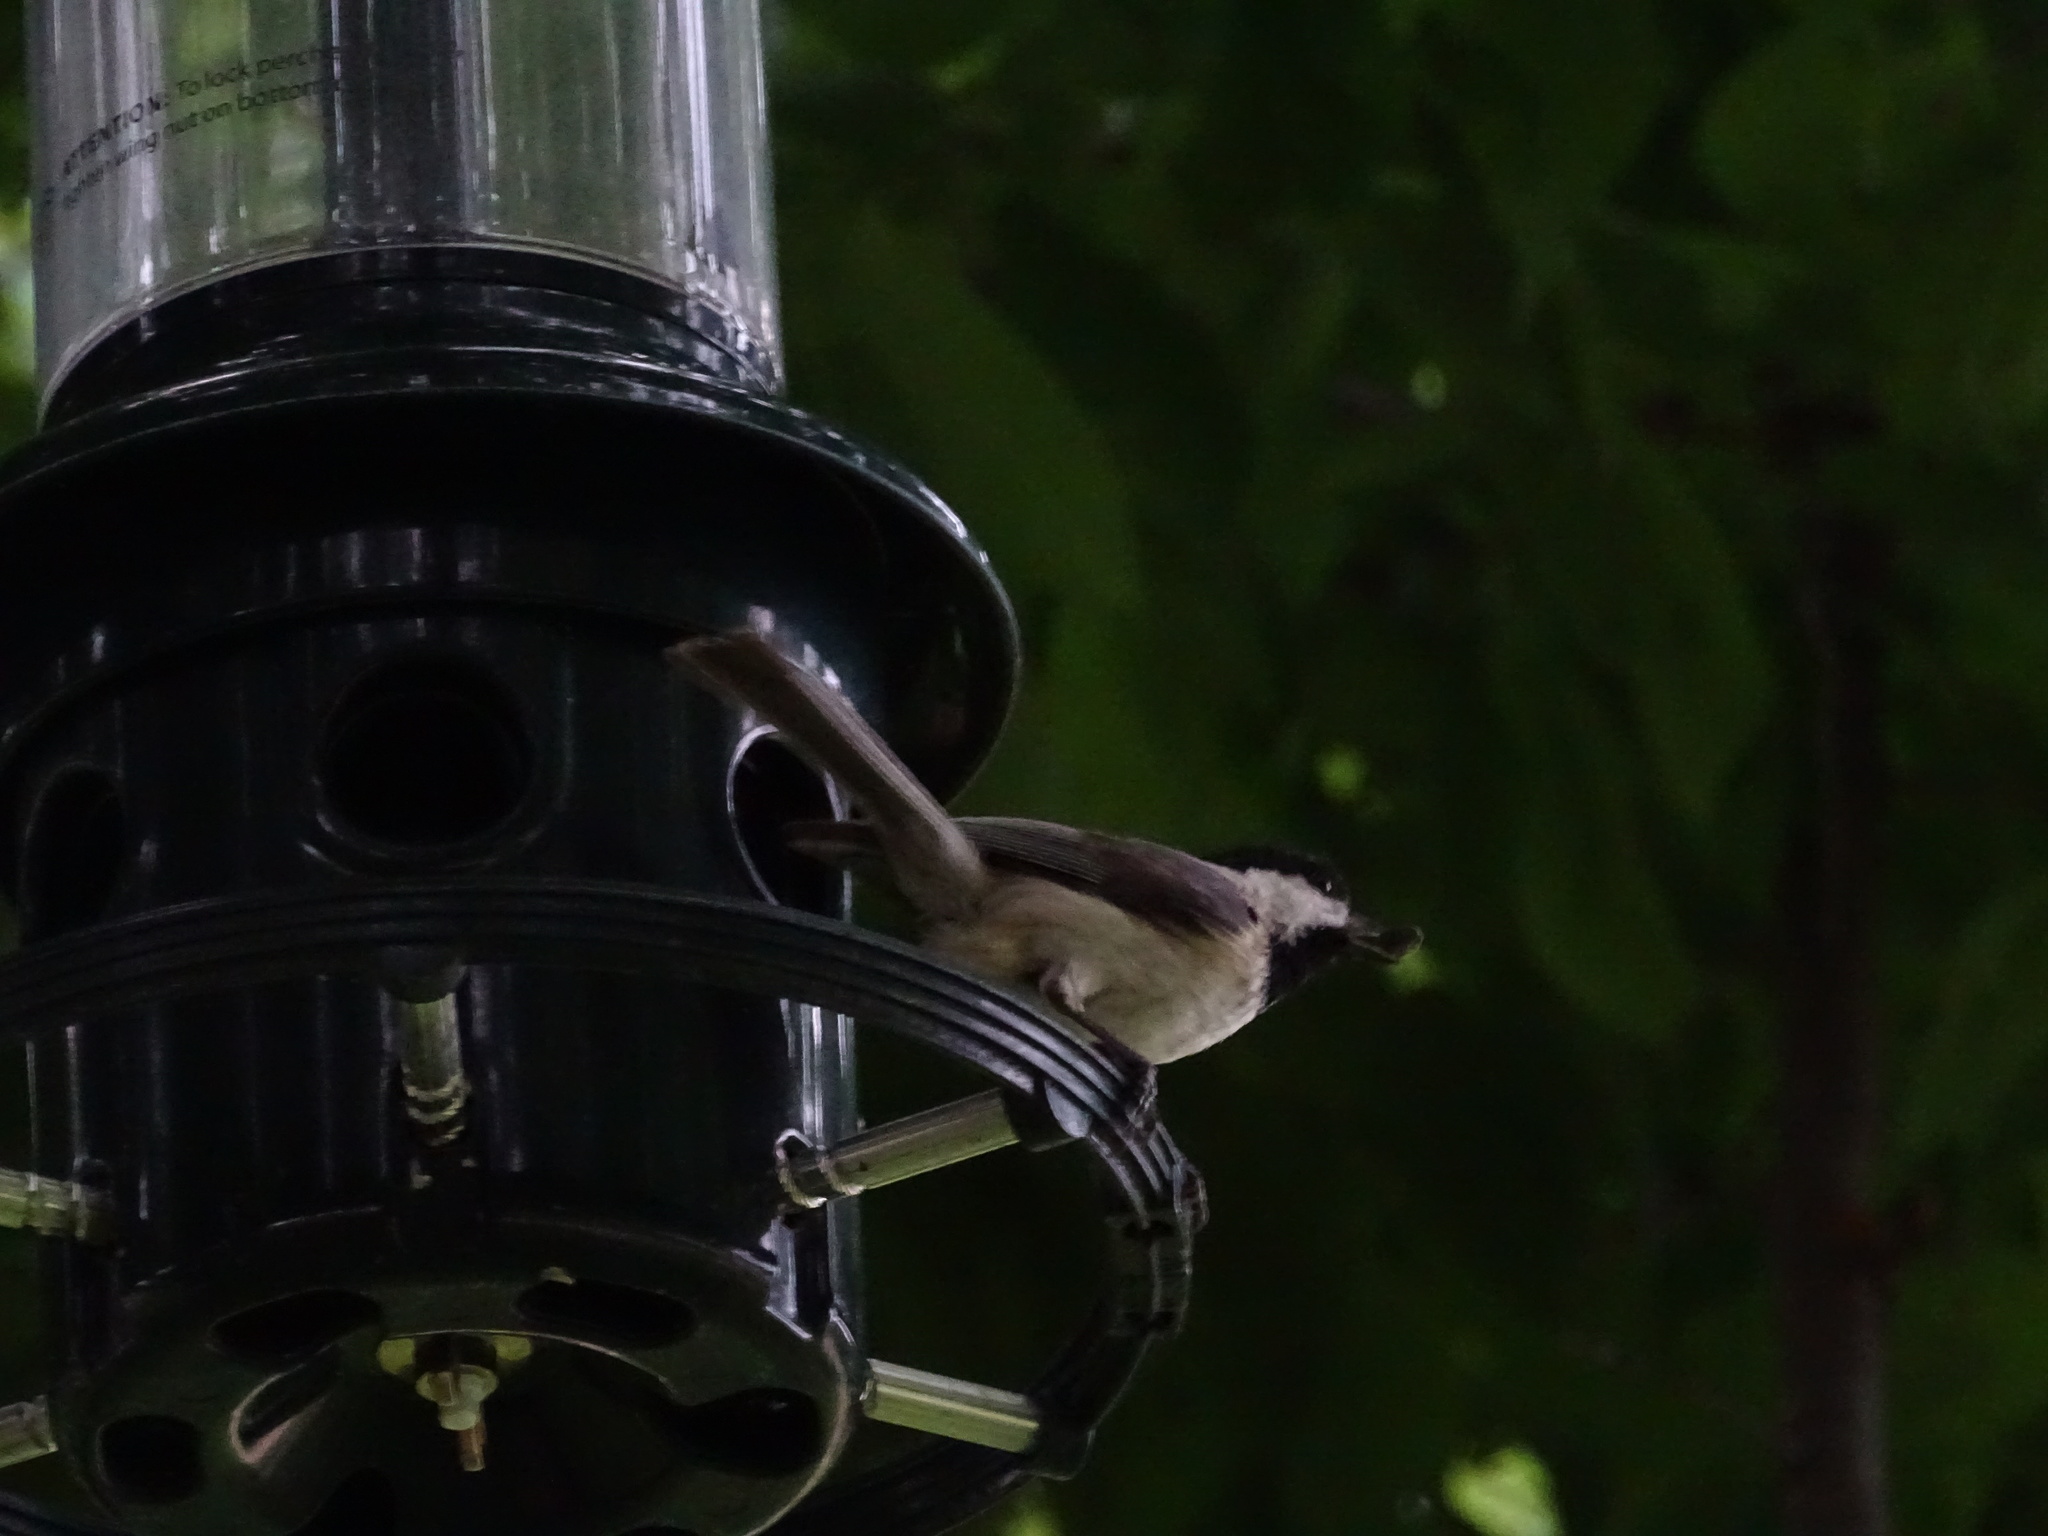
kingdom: Animalia
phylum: Chordata
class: Aves
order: Passeriformes
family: Paridae
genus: Poecile
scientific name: Poecile carolinensis
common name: Carolina chickadee
